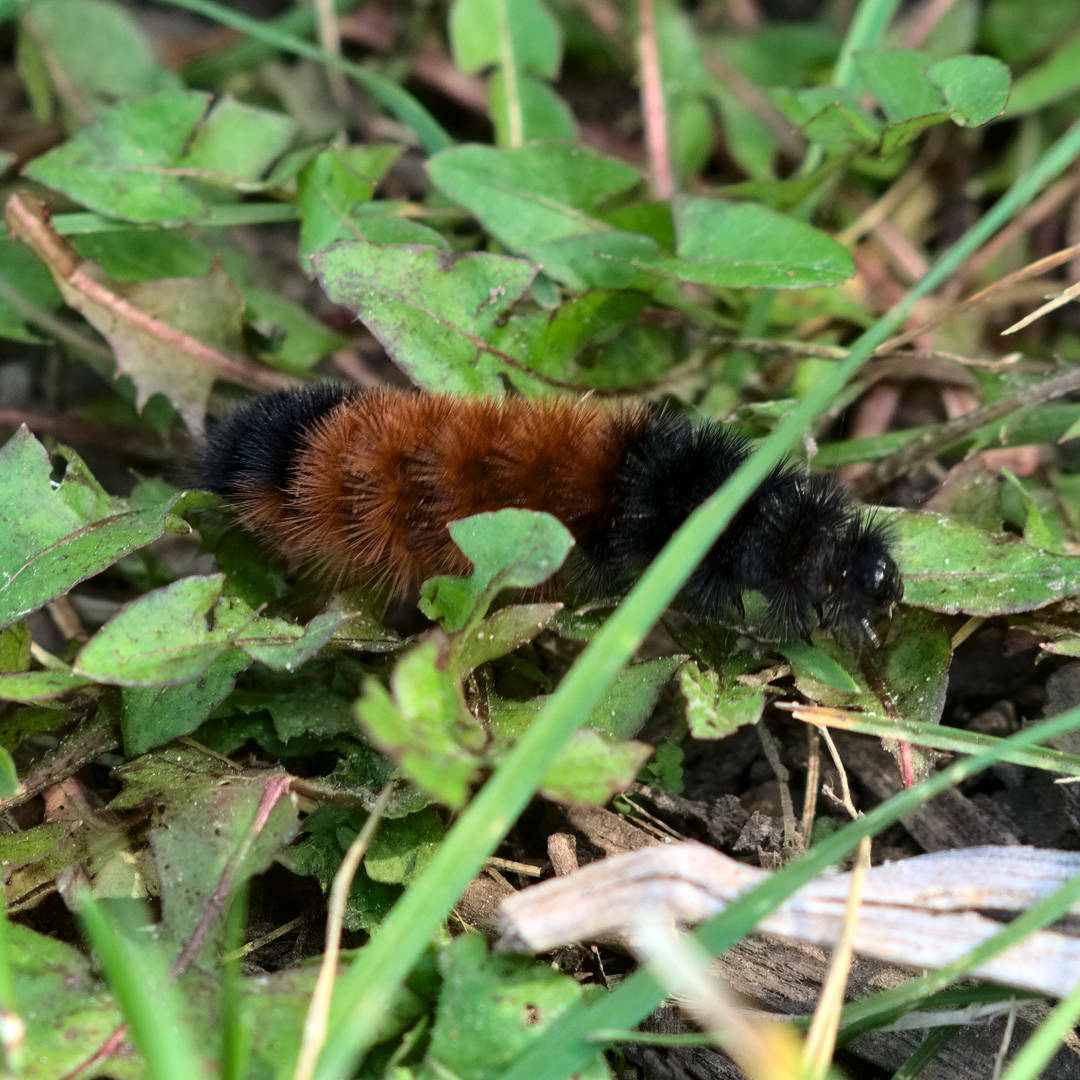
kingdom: Animalia
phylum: Arthropoda
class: Insecta
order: Lepidoptera
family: Erebidae
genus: Pyrrharctia
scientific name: Pyrrharctia isabella
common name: Isabella tiger moth
